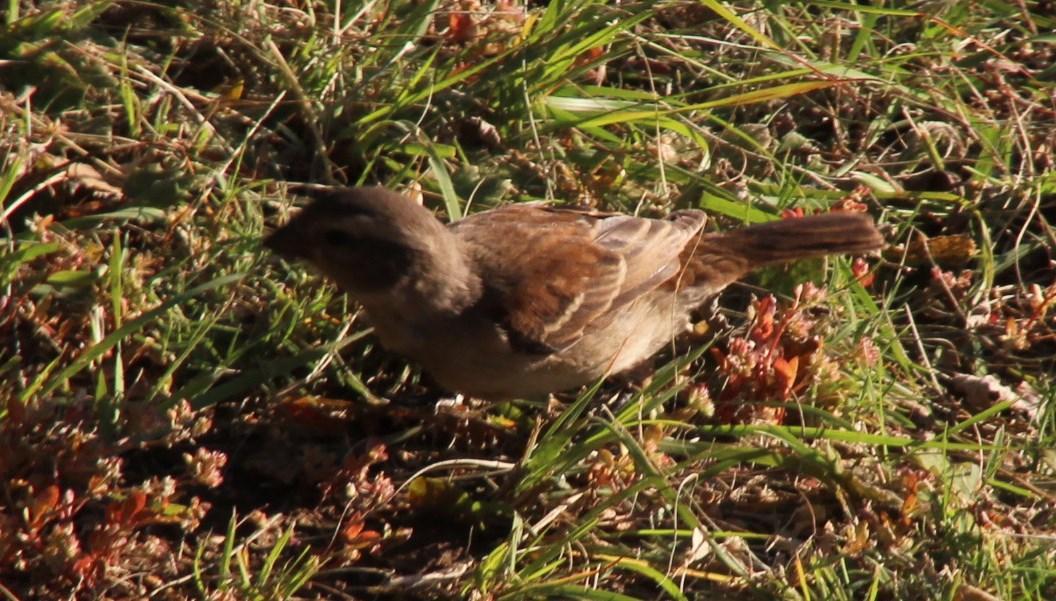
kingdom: Animalia
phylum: Chordata
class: Aves
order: Passeriformes
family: Passeridae
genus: Passer
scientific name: Passer melanurus
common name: Cape sparrow
